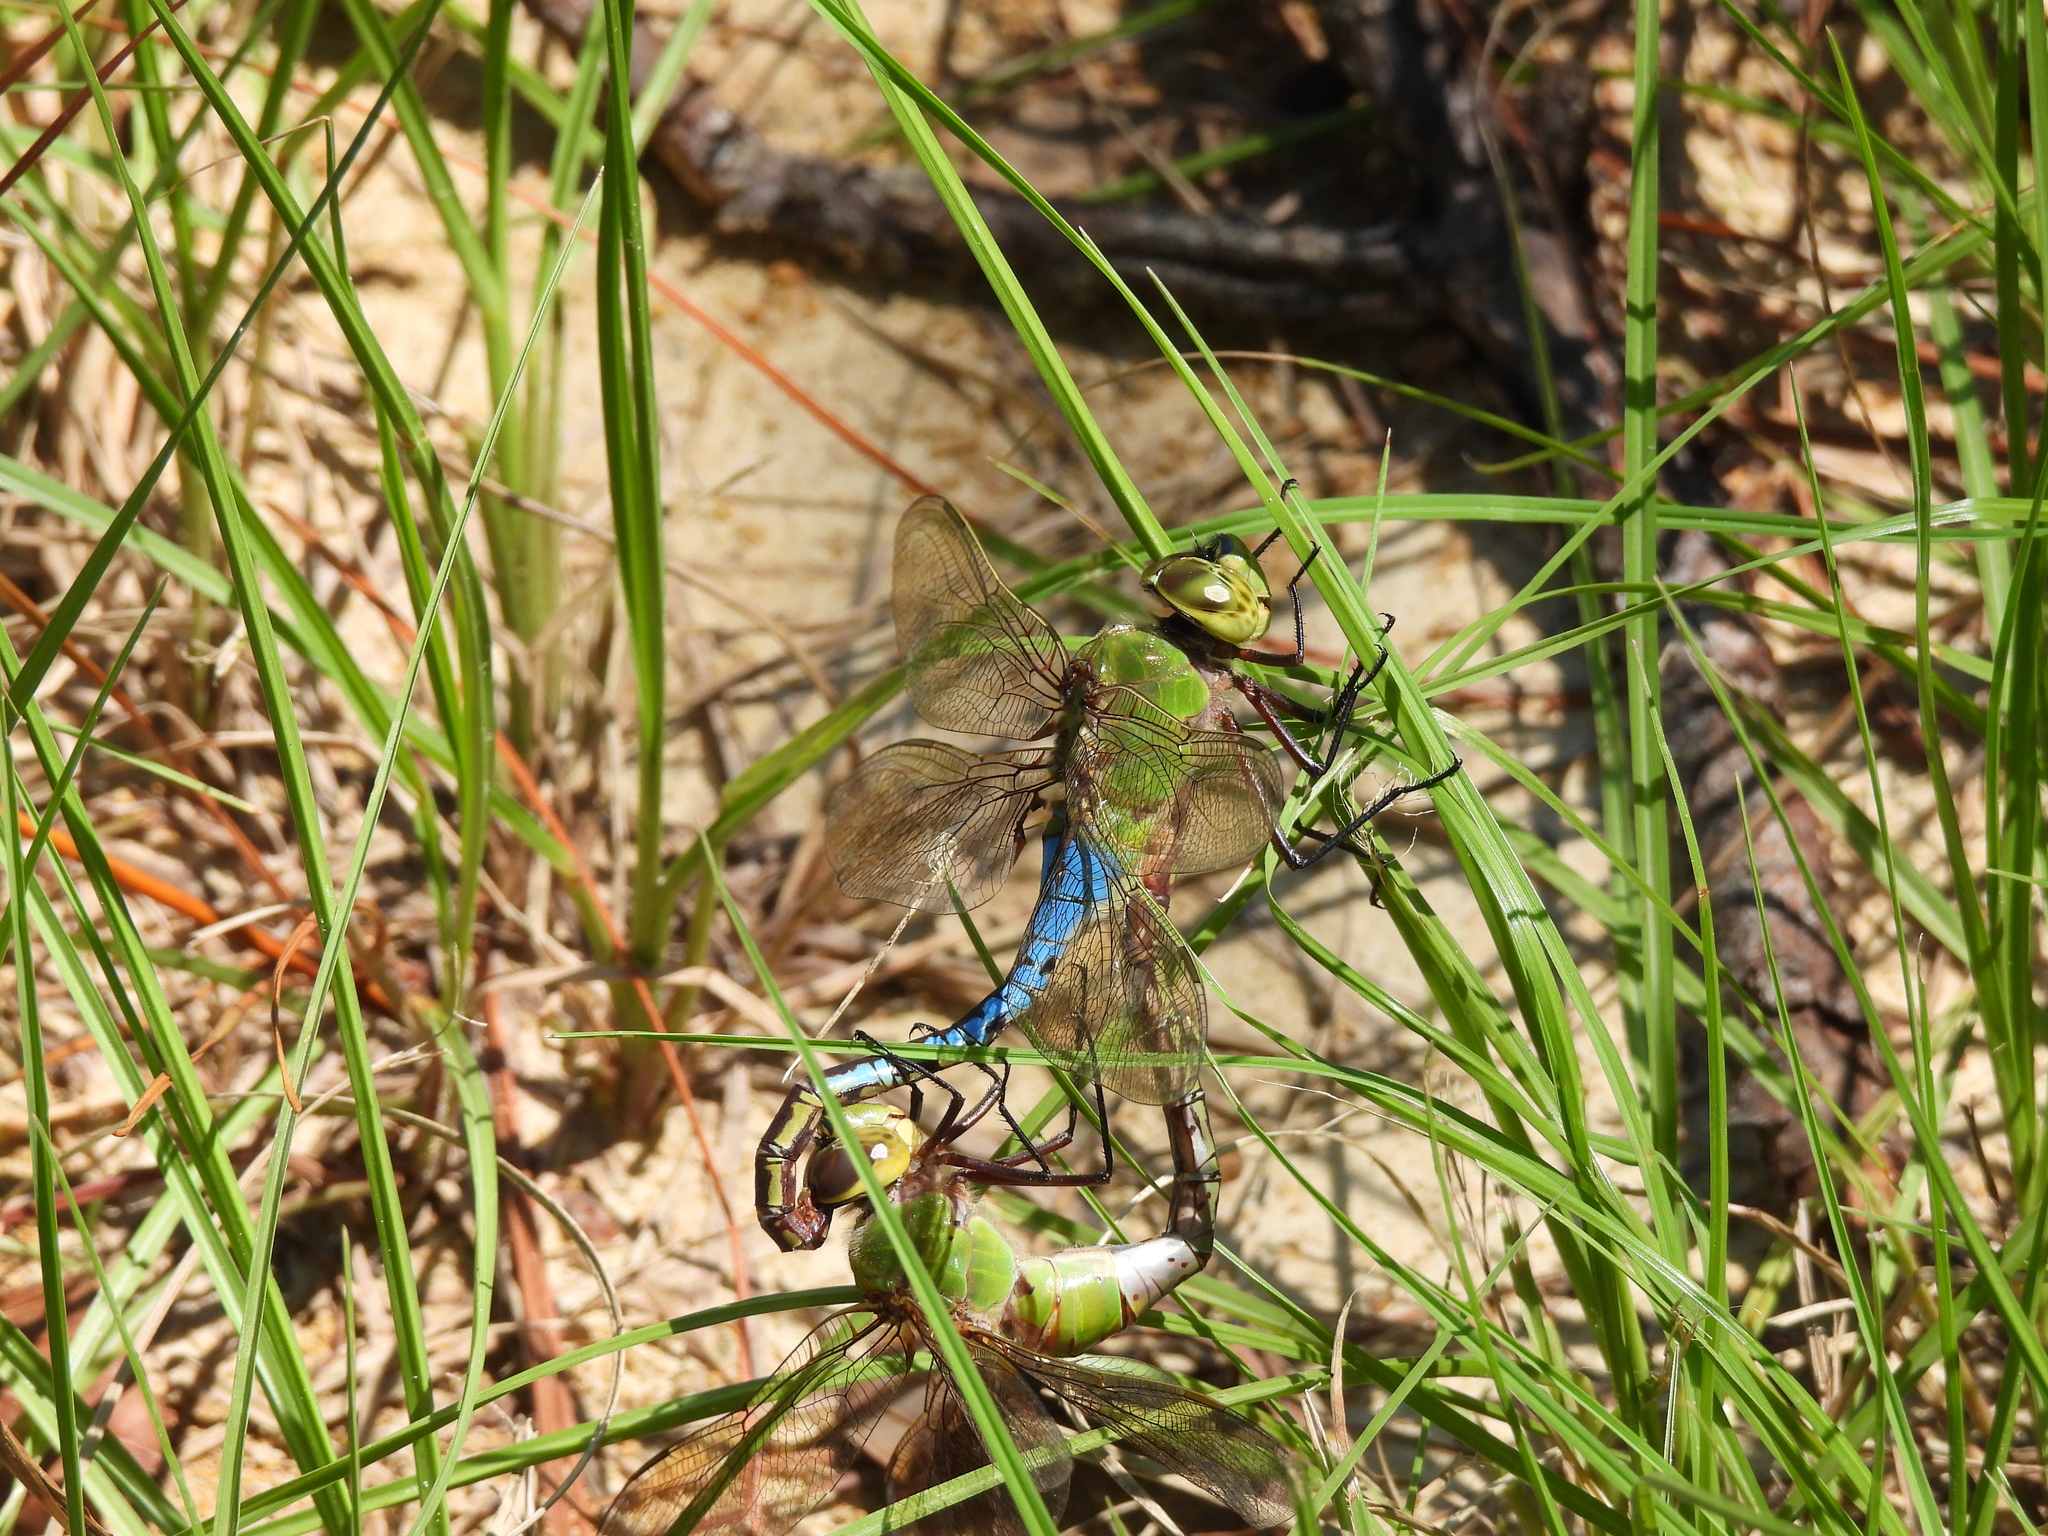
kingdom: Animalia
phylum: Arthropoda
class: Insecta
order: Odonata
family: Aeshnidae
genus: Anax
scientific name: Anax junius
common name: Common green darner
